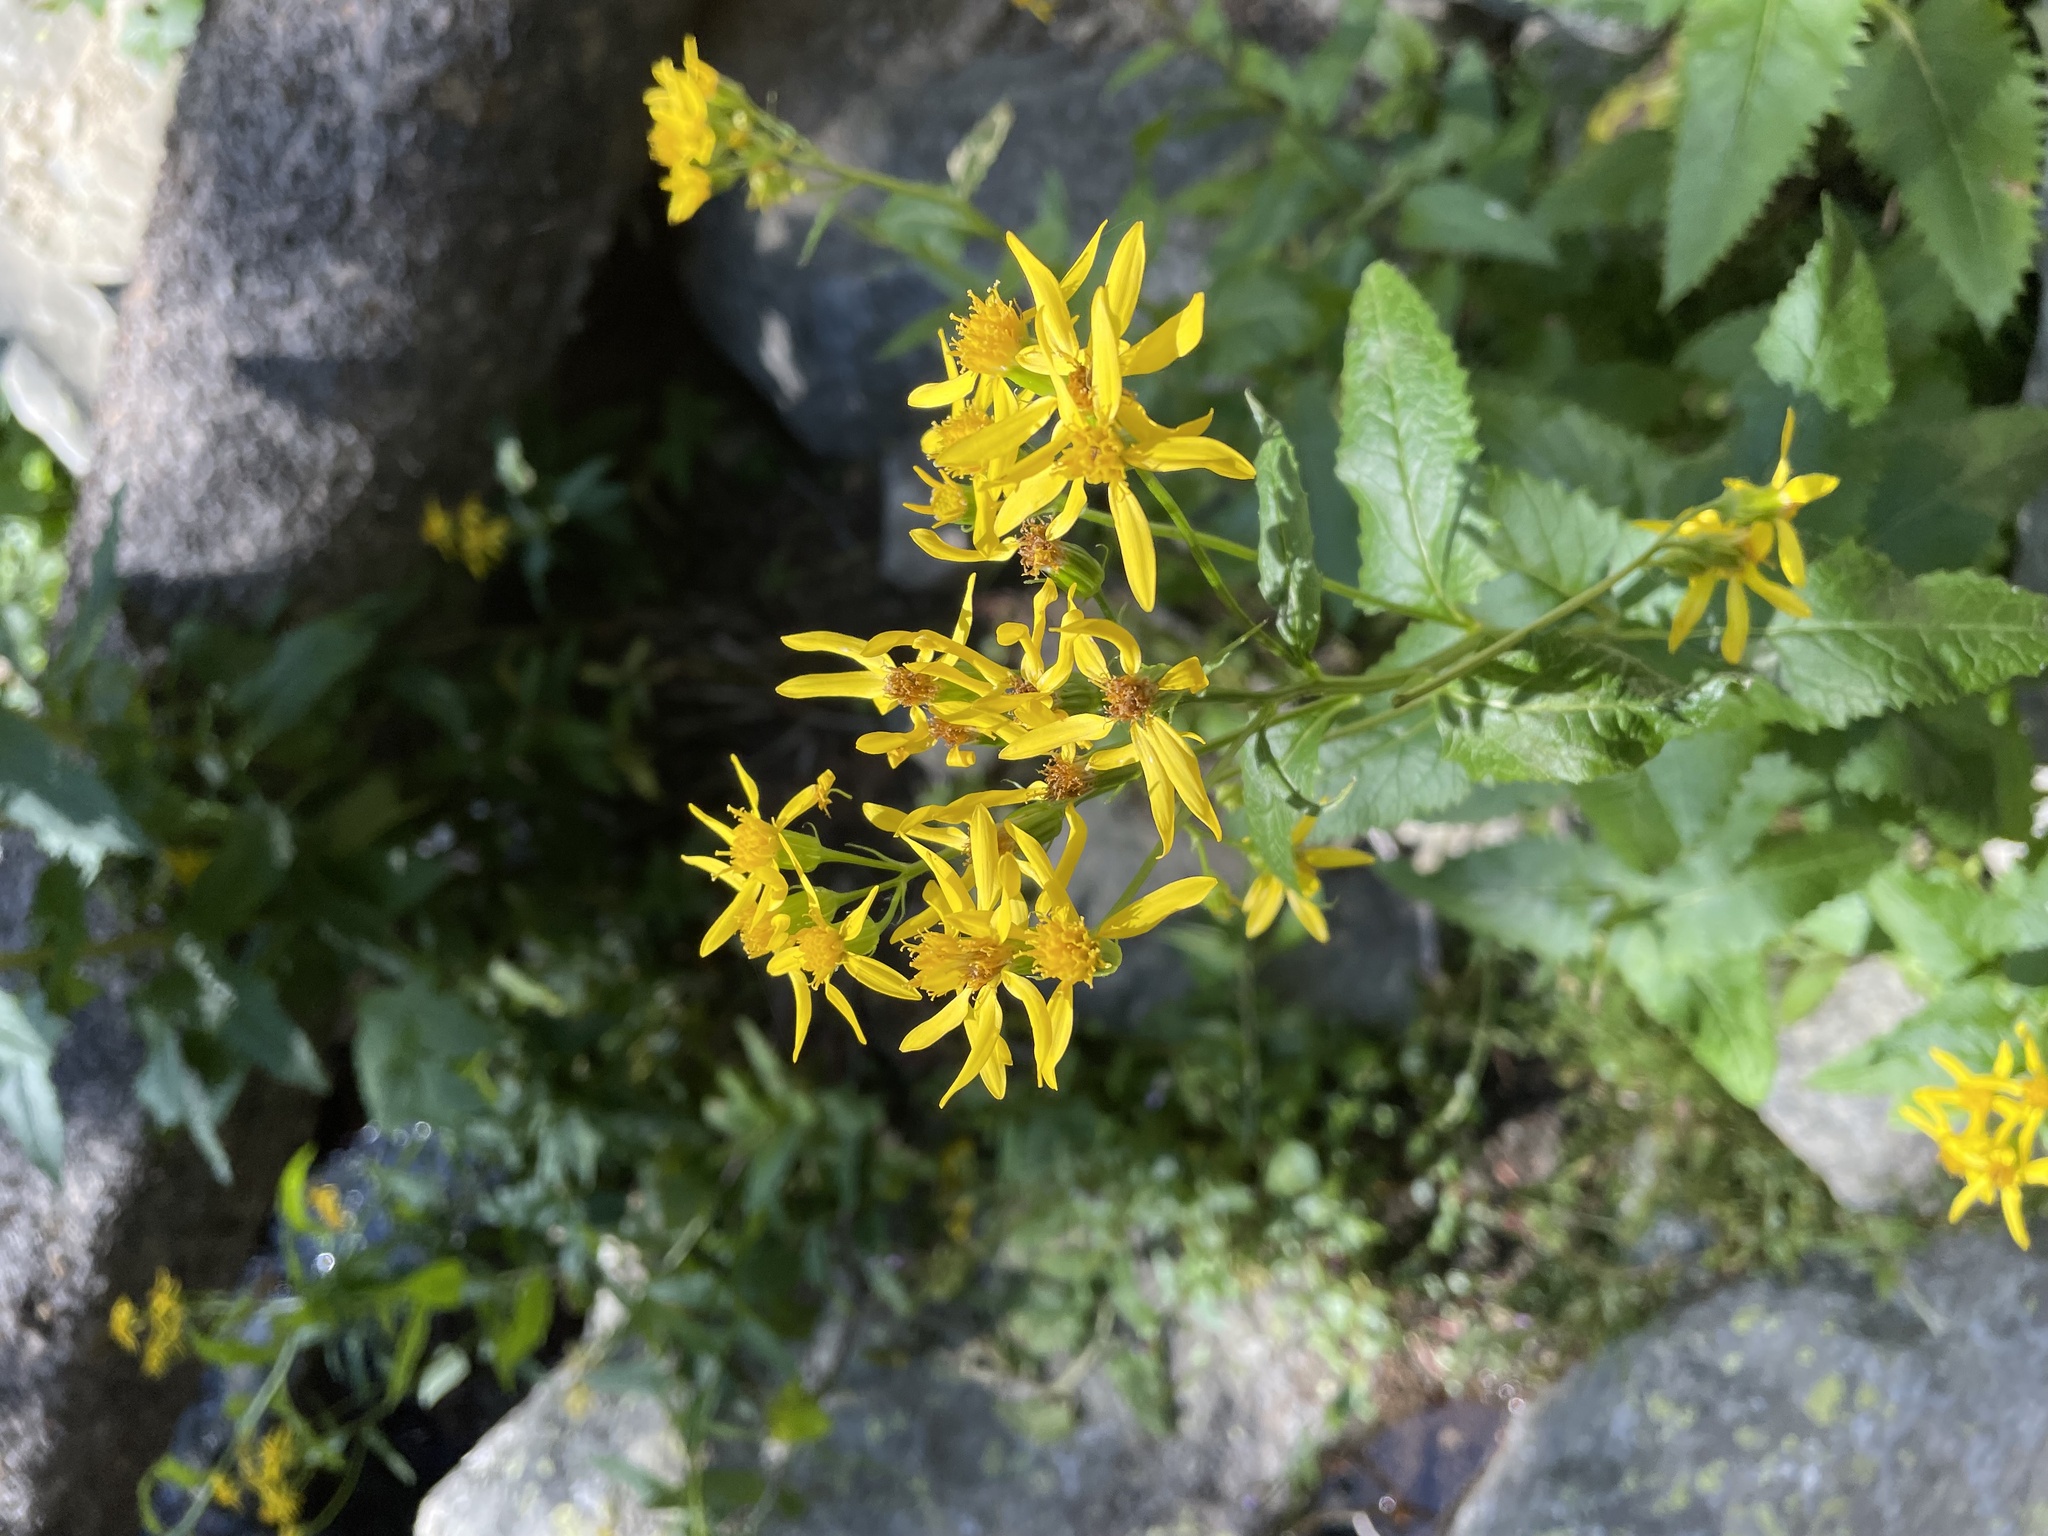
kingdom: Plantae
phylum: Tracheophyta
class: Magnoliopsida
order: Asterales
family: Asteraceae
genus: Senecio
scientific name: Senecio triangularis
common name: Arrowleaf butterweed
